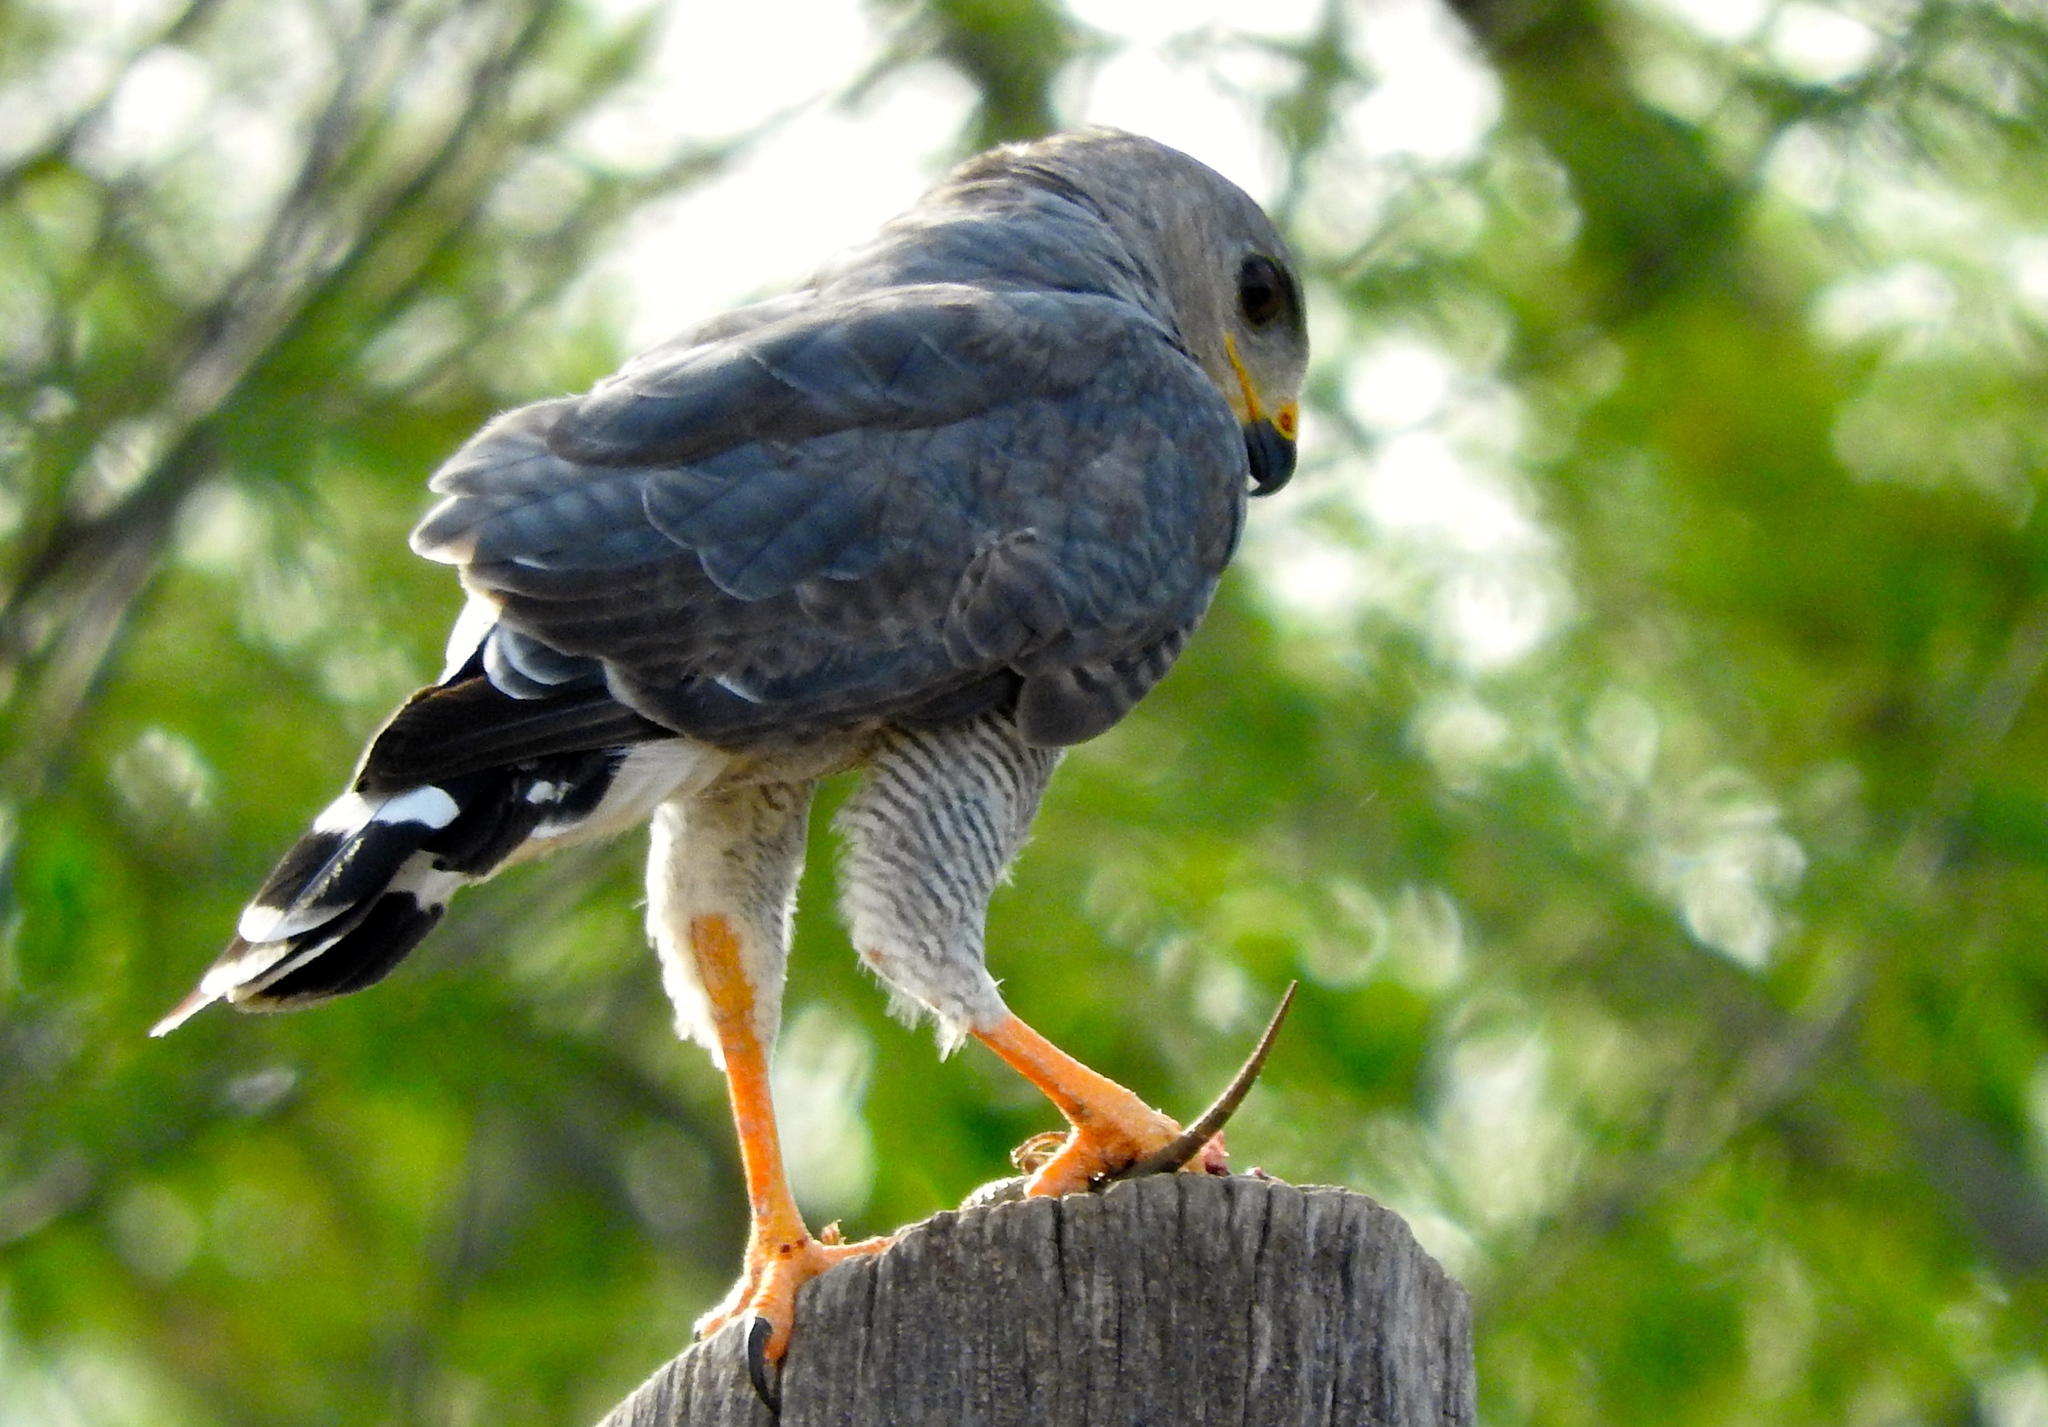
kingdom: Animalia
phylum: Chordata
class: Aves
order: Accipitriformes
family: Accipitridae
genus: Buteo
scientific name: Buteo nitidus
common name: Grey-lined hawk
